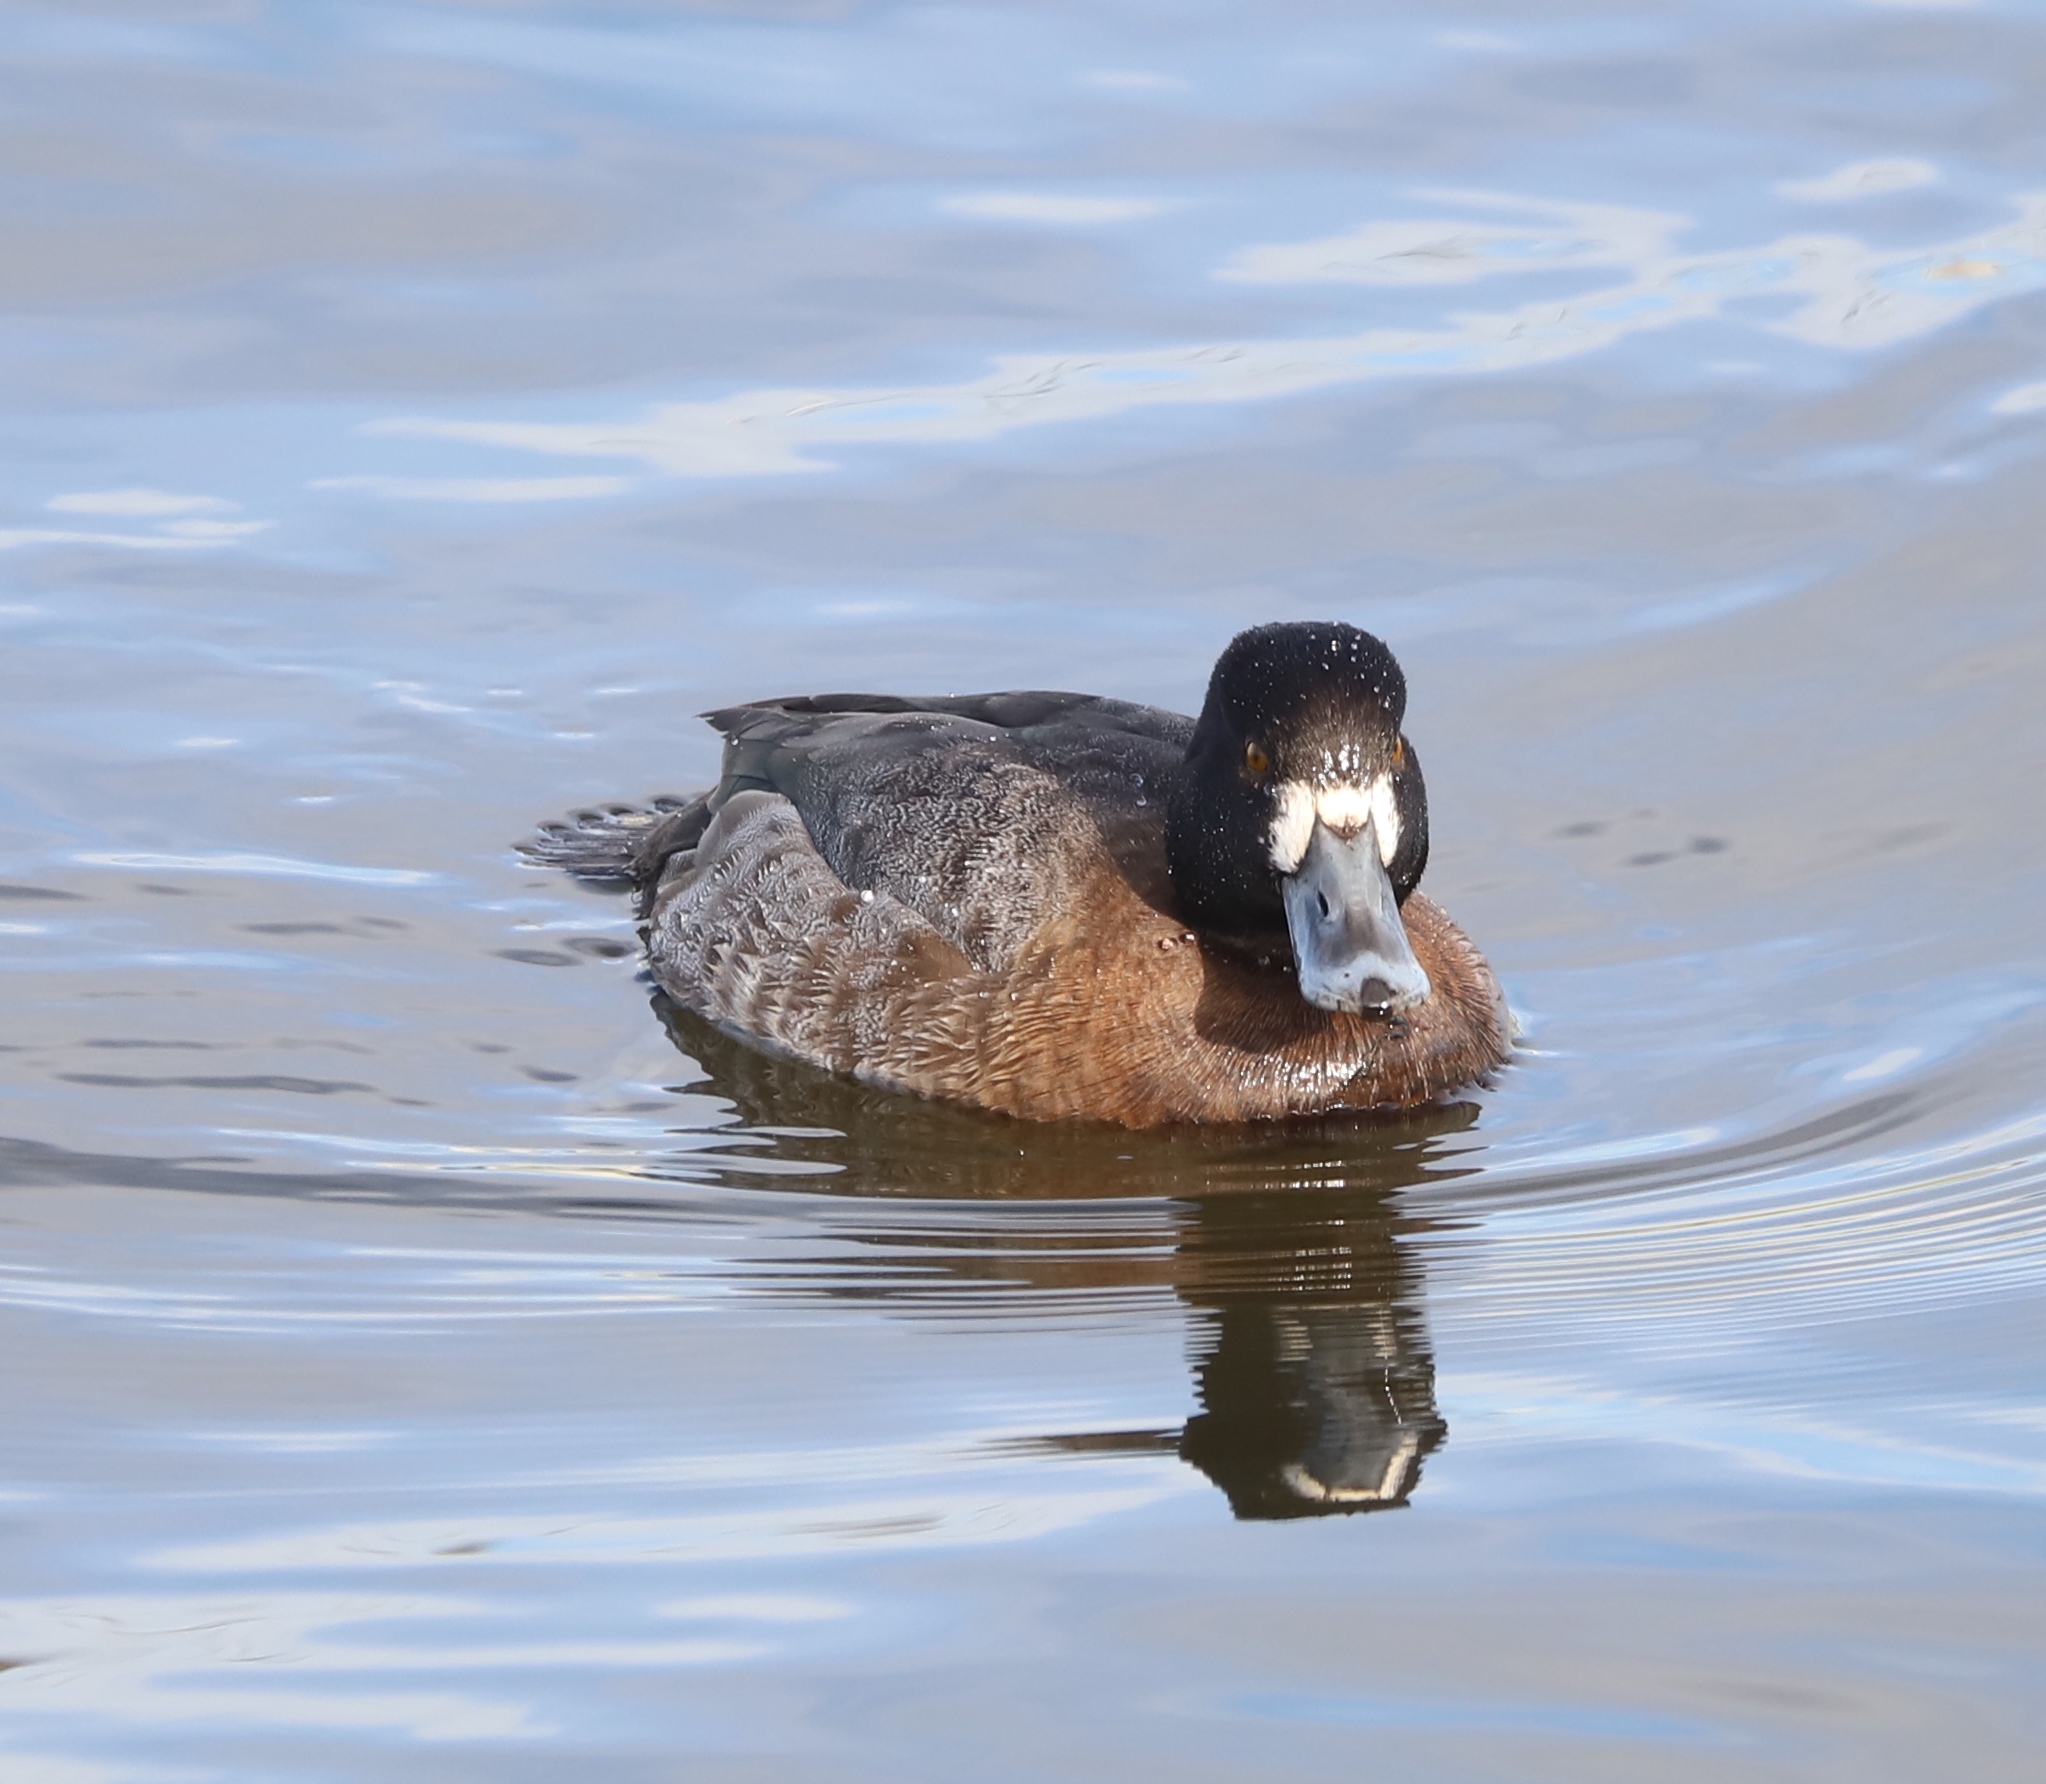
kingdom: Animalia
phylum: Chordata
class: Aves
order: Anseriformes
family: Anatidae
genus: Aythya
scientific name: Aythya affinis
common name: Lesser scaup
